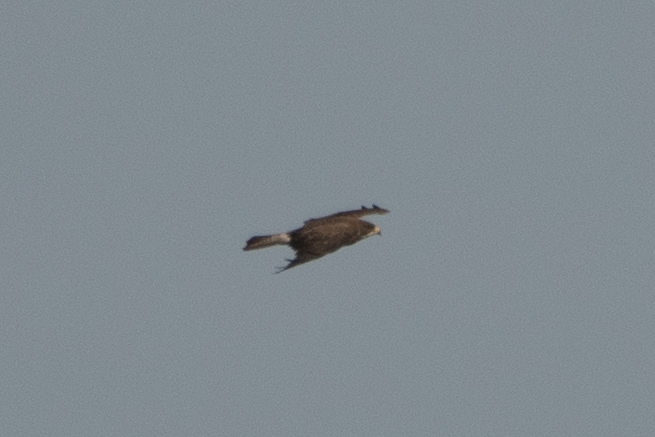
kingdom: Animalia
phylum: Chordata
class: Aves
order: Accipitriformes
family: Accipitridae
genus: Buteo
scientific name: Buteo swainsoni
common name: Swainson's hawk
